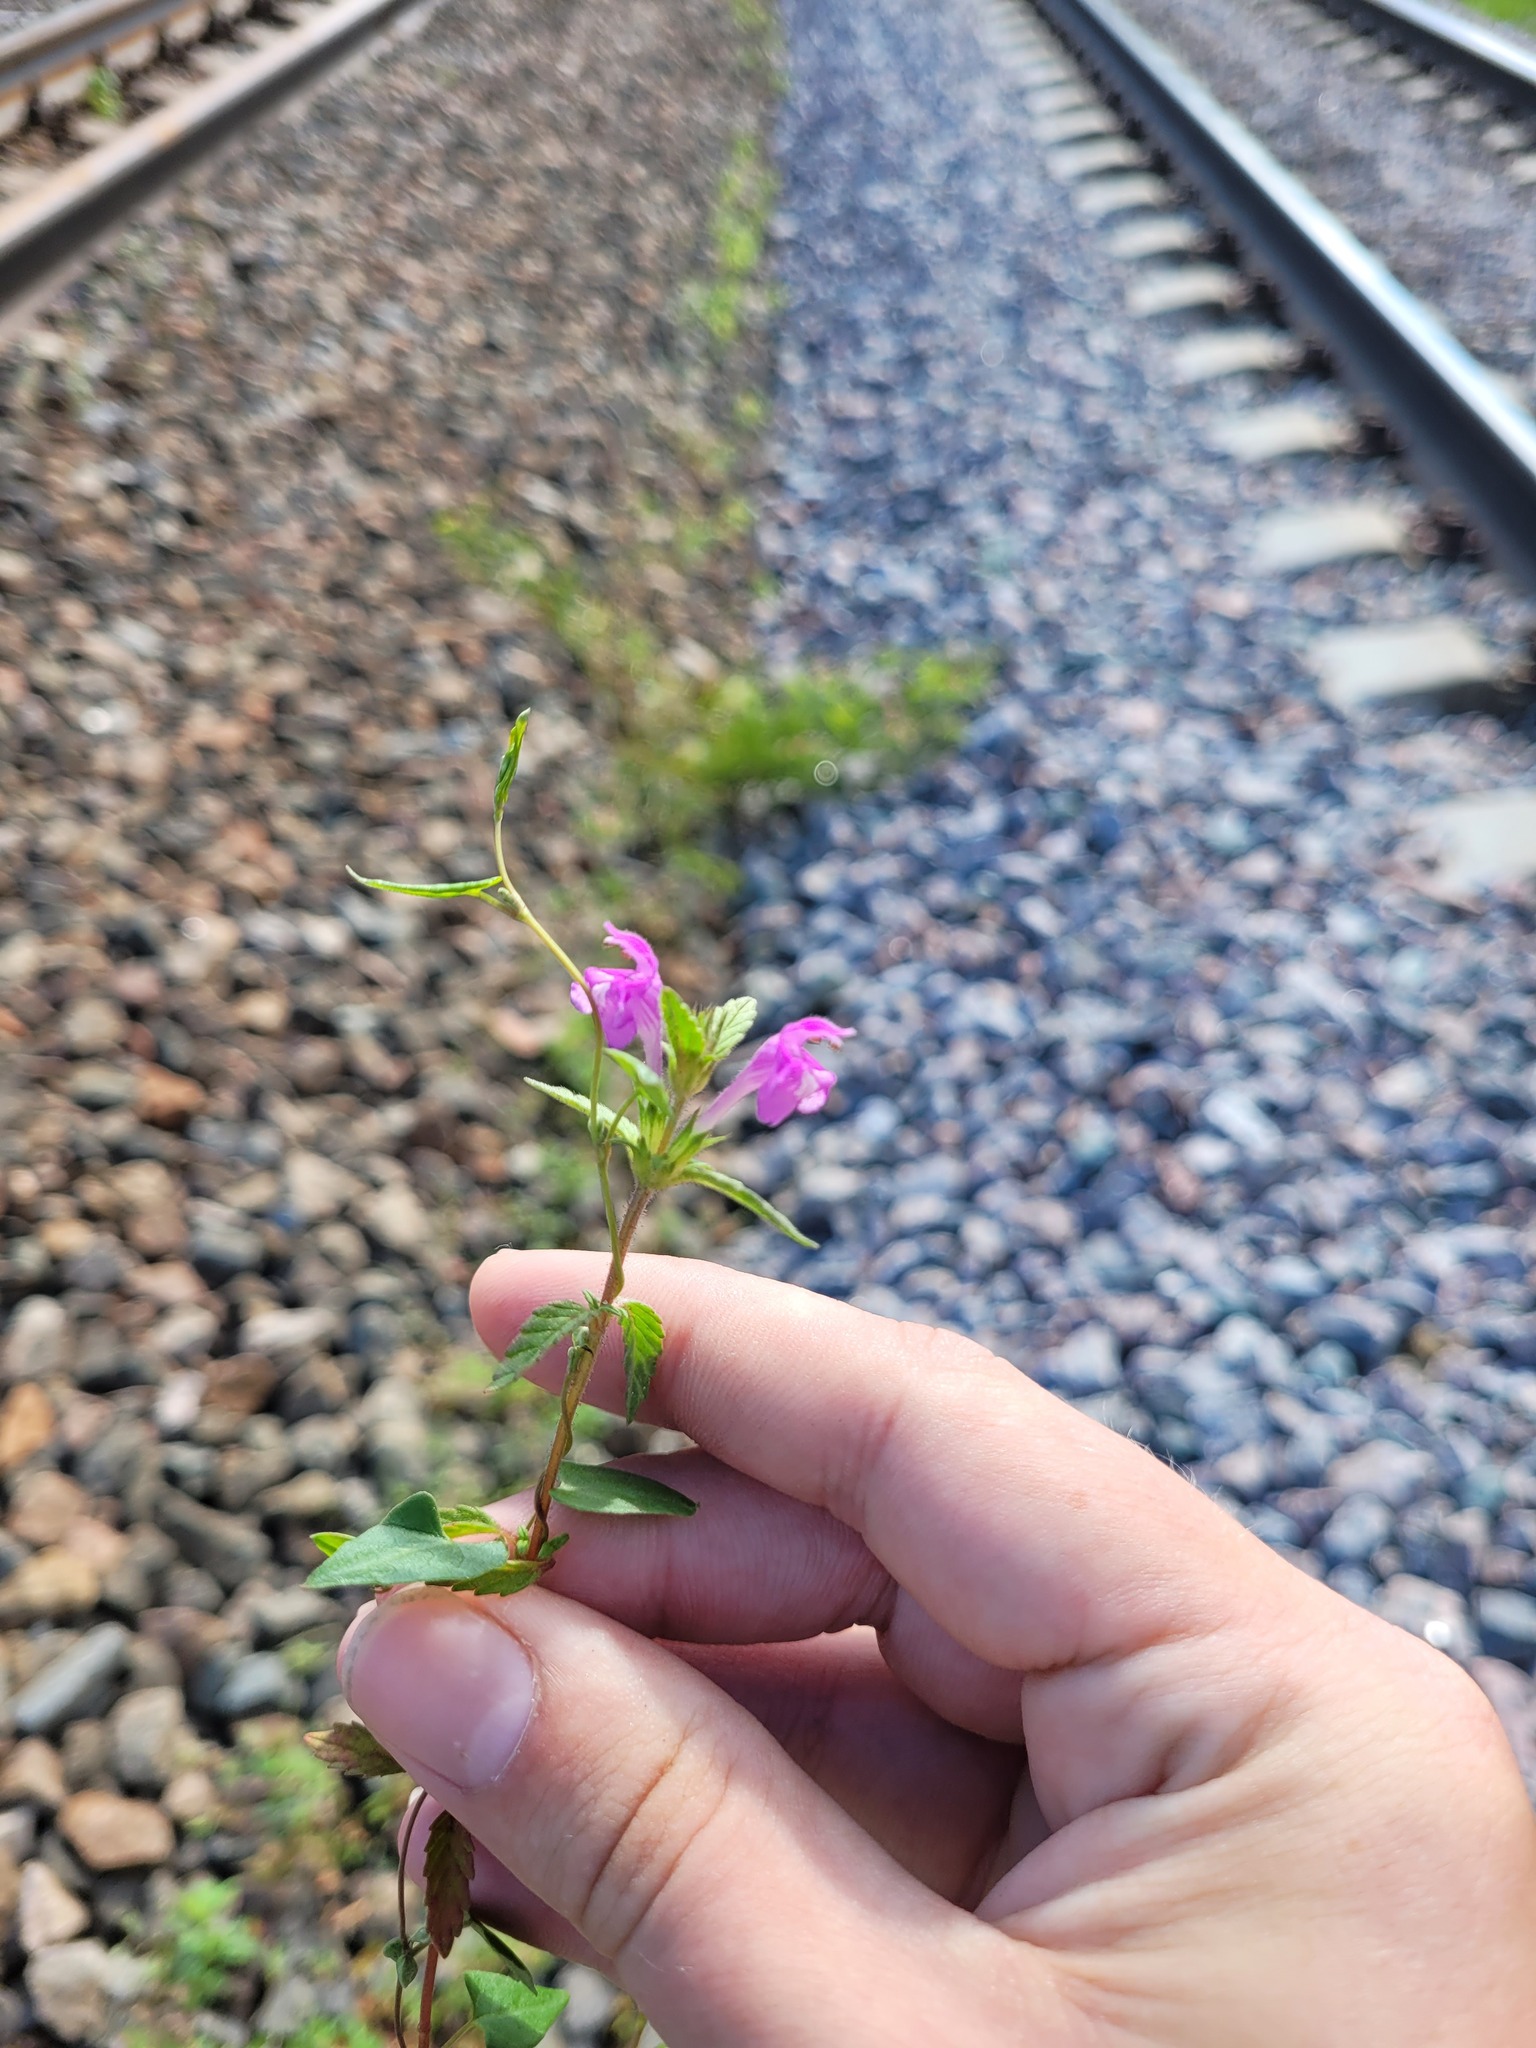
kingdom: Plantae
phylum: Tracheophyta
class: Magnoliopsida
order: Lamiales
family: Lamiaceae
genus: Galeopsis
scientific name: Galeopsis ladanum
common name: Broad-leaved hemp-nettle
